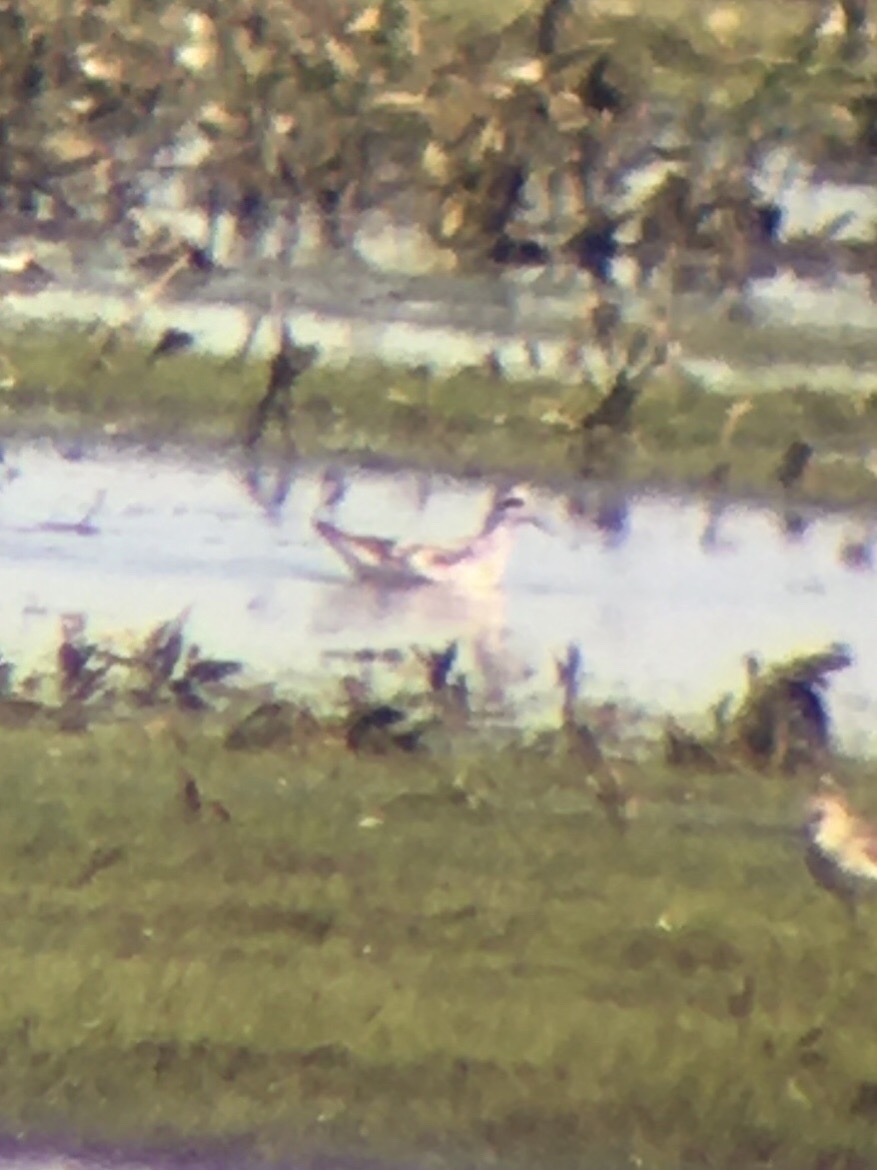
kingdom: Animalia
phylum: Chordata
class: Aves
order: Charadriiformes
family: Scolopacidae
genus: Phalaropus
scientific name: Phalaropus lobatus
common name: Red-necked phalarope
